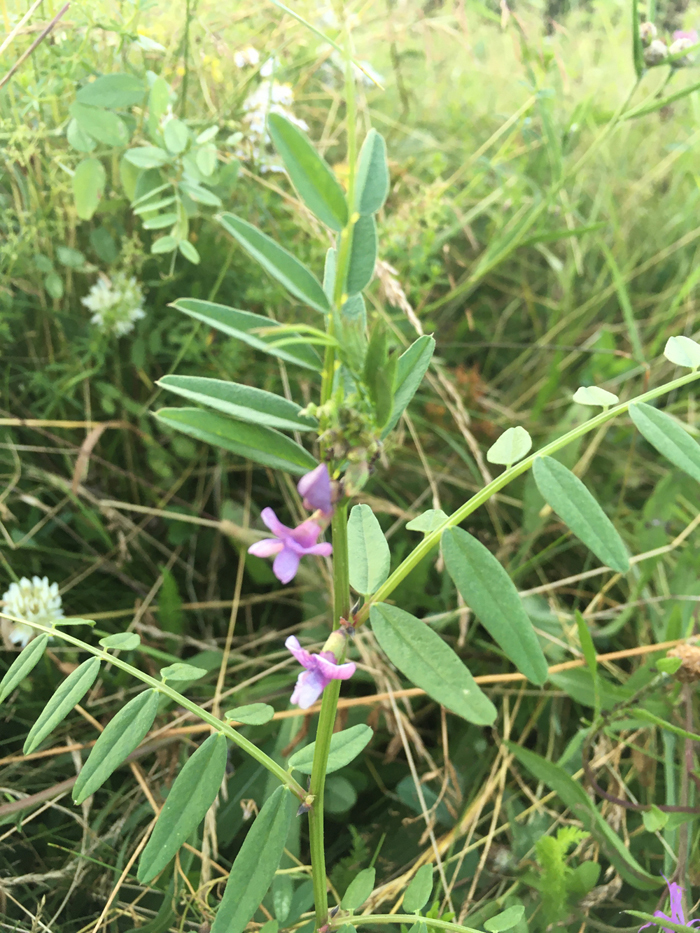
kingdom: Plantae
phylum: Tracheophyta
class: Magnoliopsida
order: Fabales
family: Fabaceae
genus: Vicia
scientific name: Vicia sepium
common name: Bush vetch
